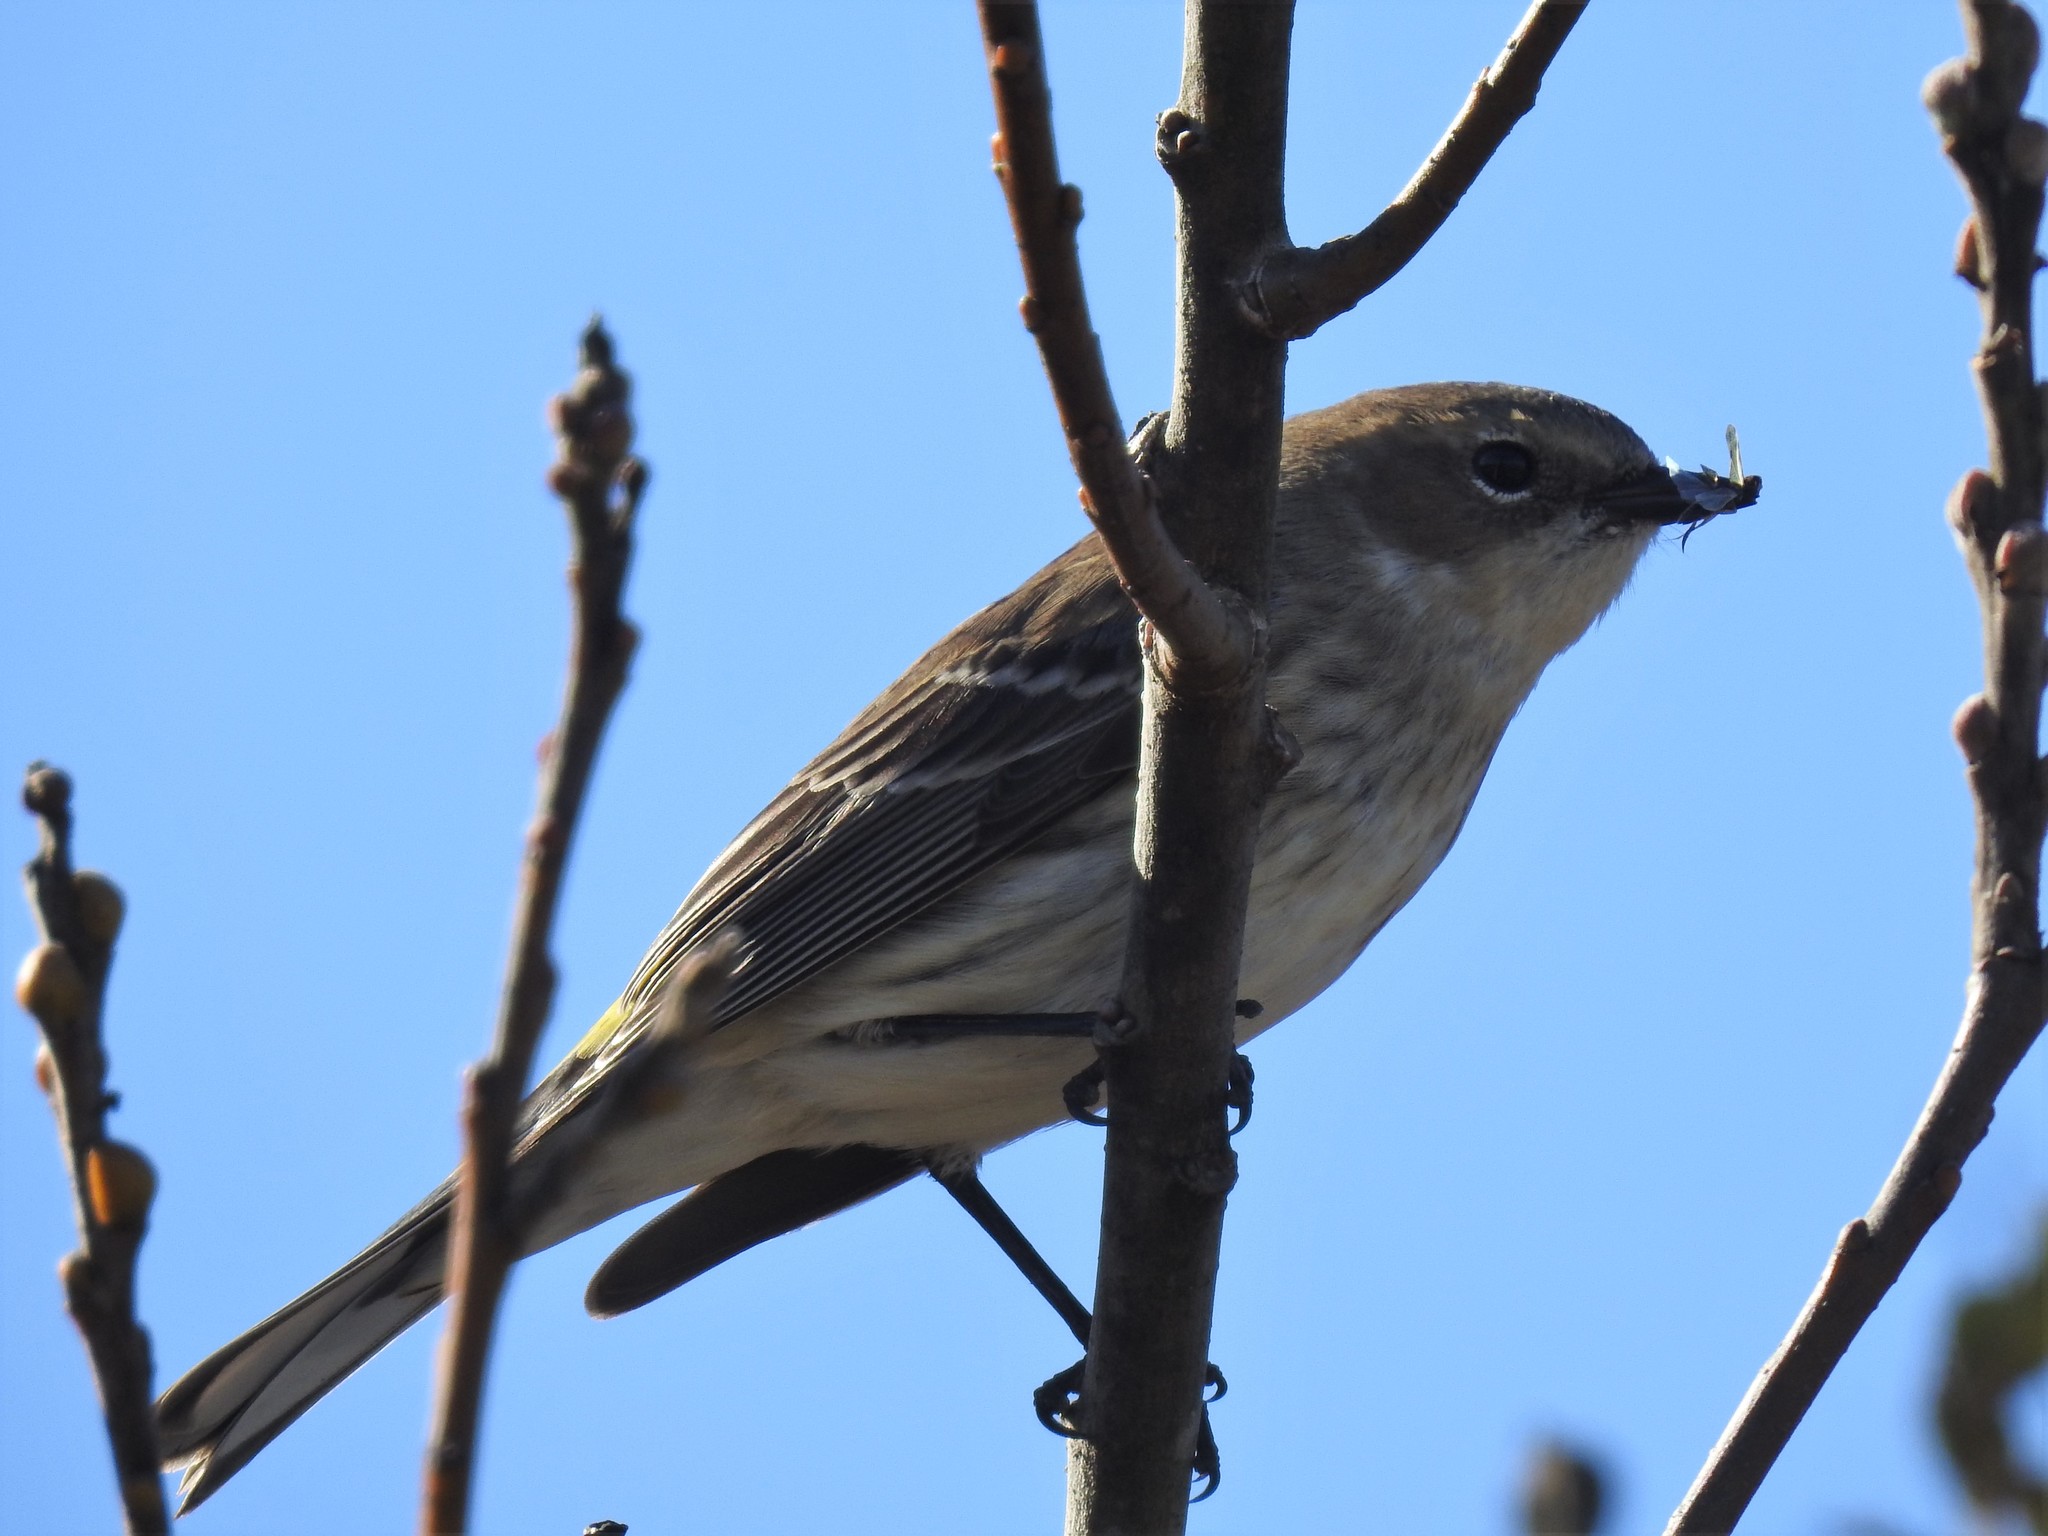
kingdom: Animalia
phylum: Chordata
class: Aves
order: Passeriformes
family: Parulidae
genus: Setophaga
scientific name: Setophaga coronata
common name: Myrtle warbler
